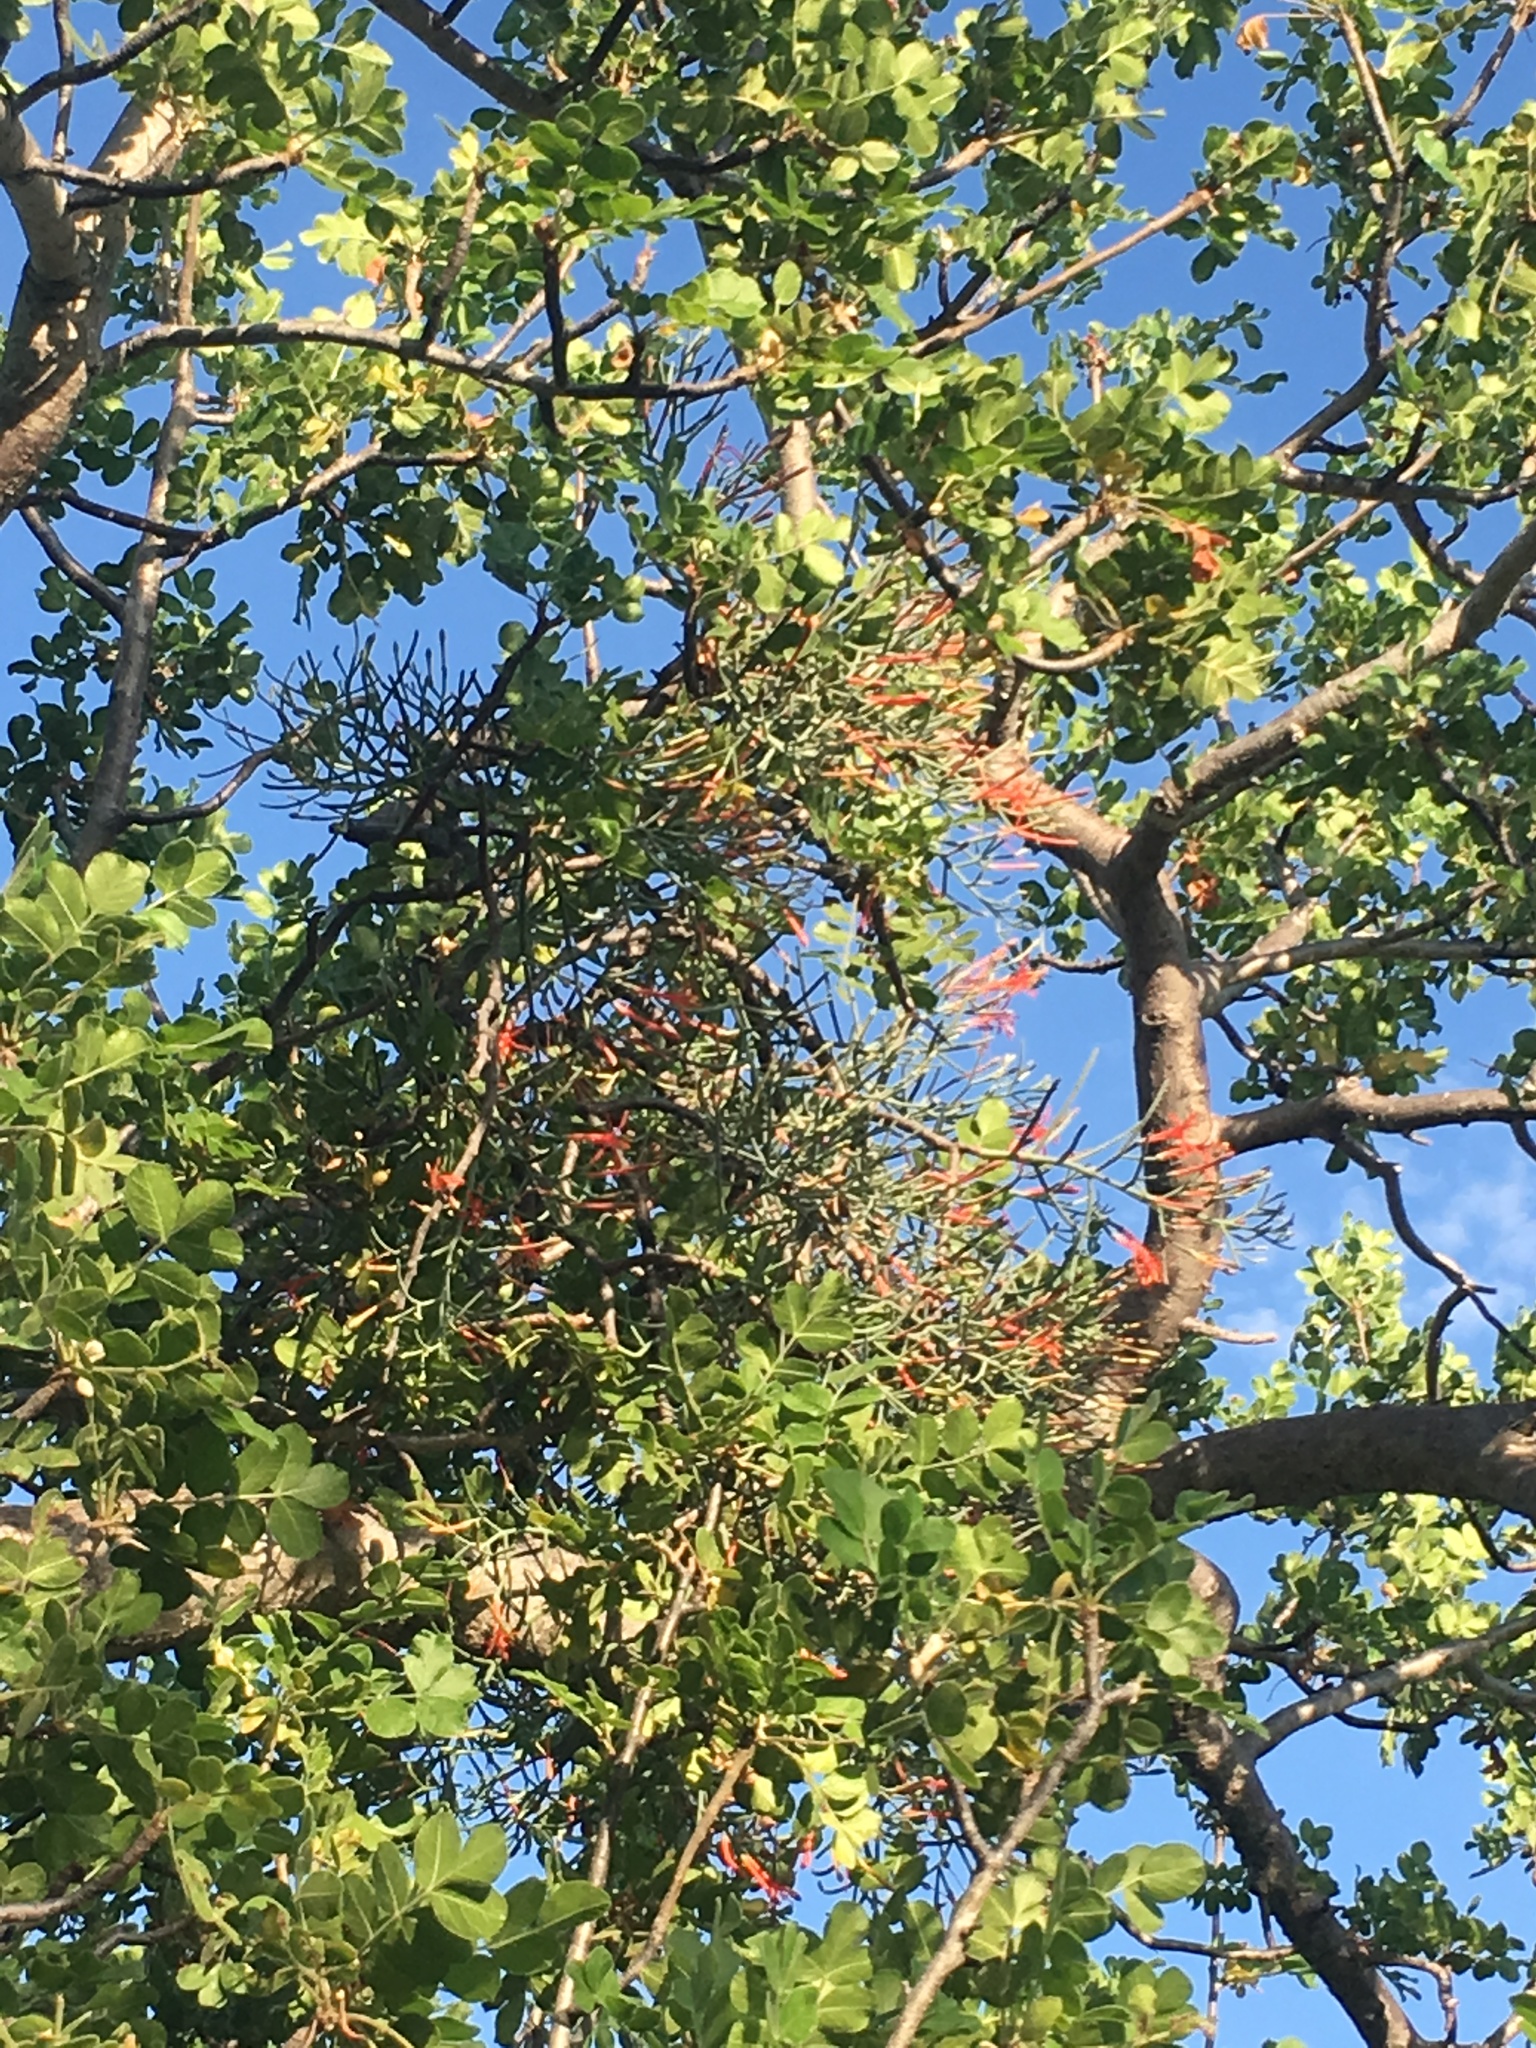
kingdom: Plantae
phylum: Tracheophyta
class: Magnoliopsida
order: Santalales
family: Loranthaceae
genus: Psittacanthus
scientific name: Psittacanthus sonorae
